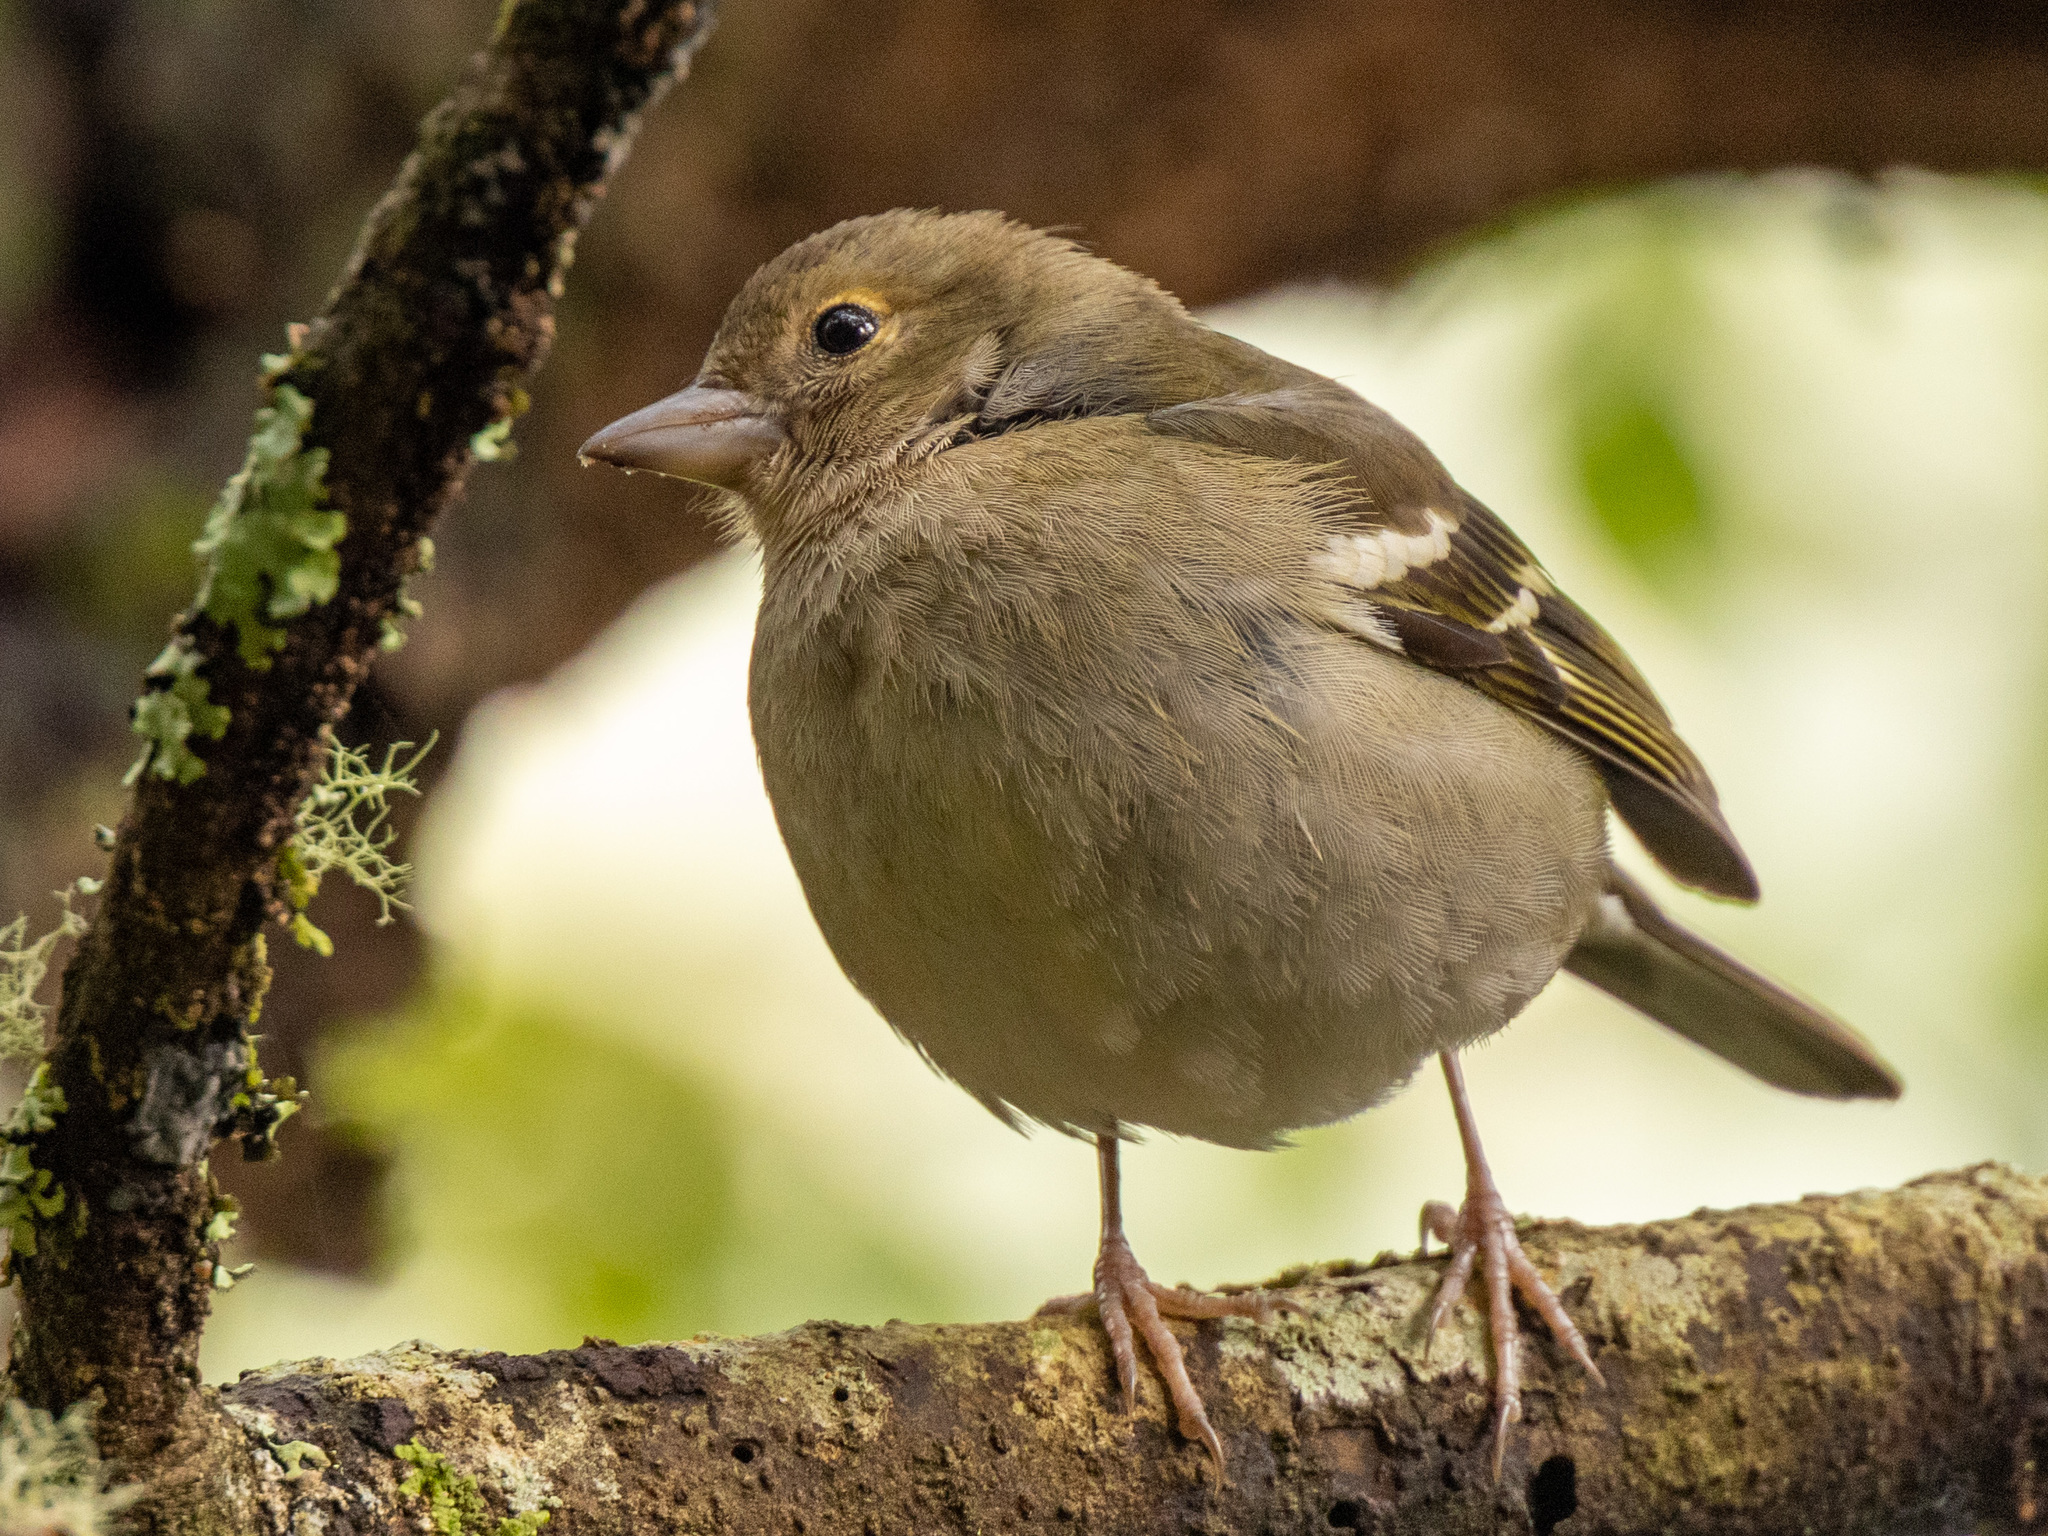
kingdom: Animalia
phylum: Chordata
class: Aves
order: Passeriformes
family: Fringillidae
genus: Fringilla
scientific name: Fringilla maderensis
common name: Madeira chaffinch
